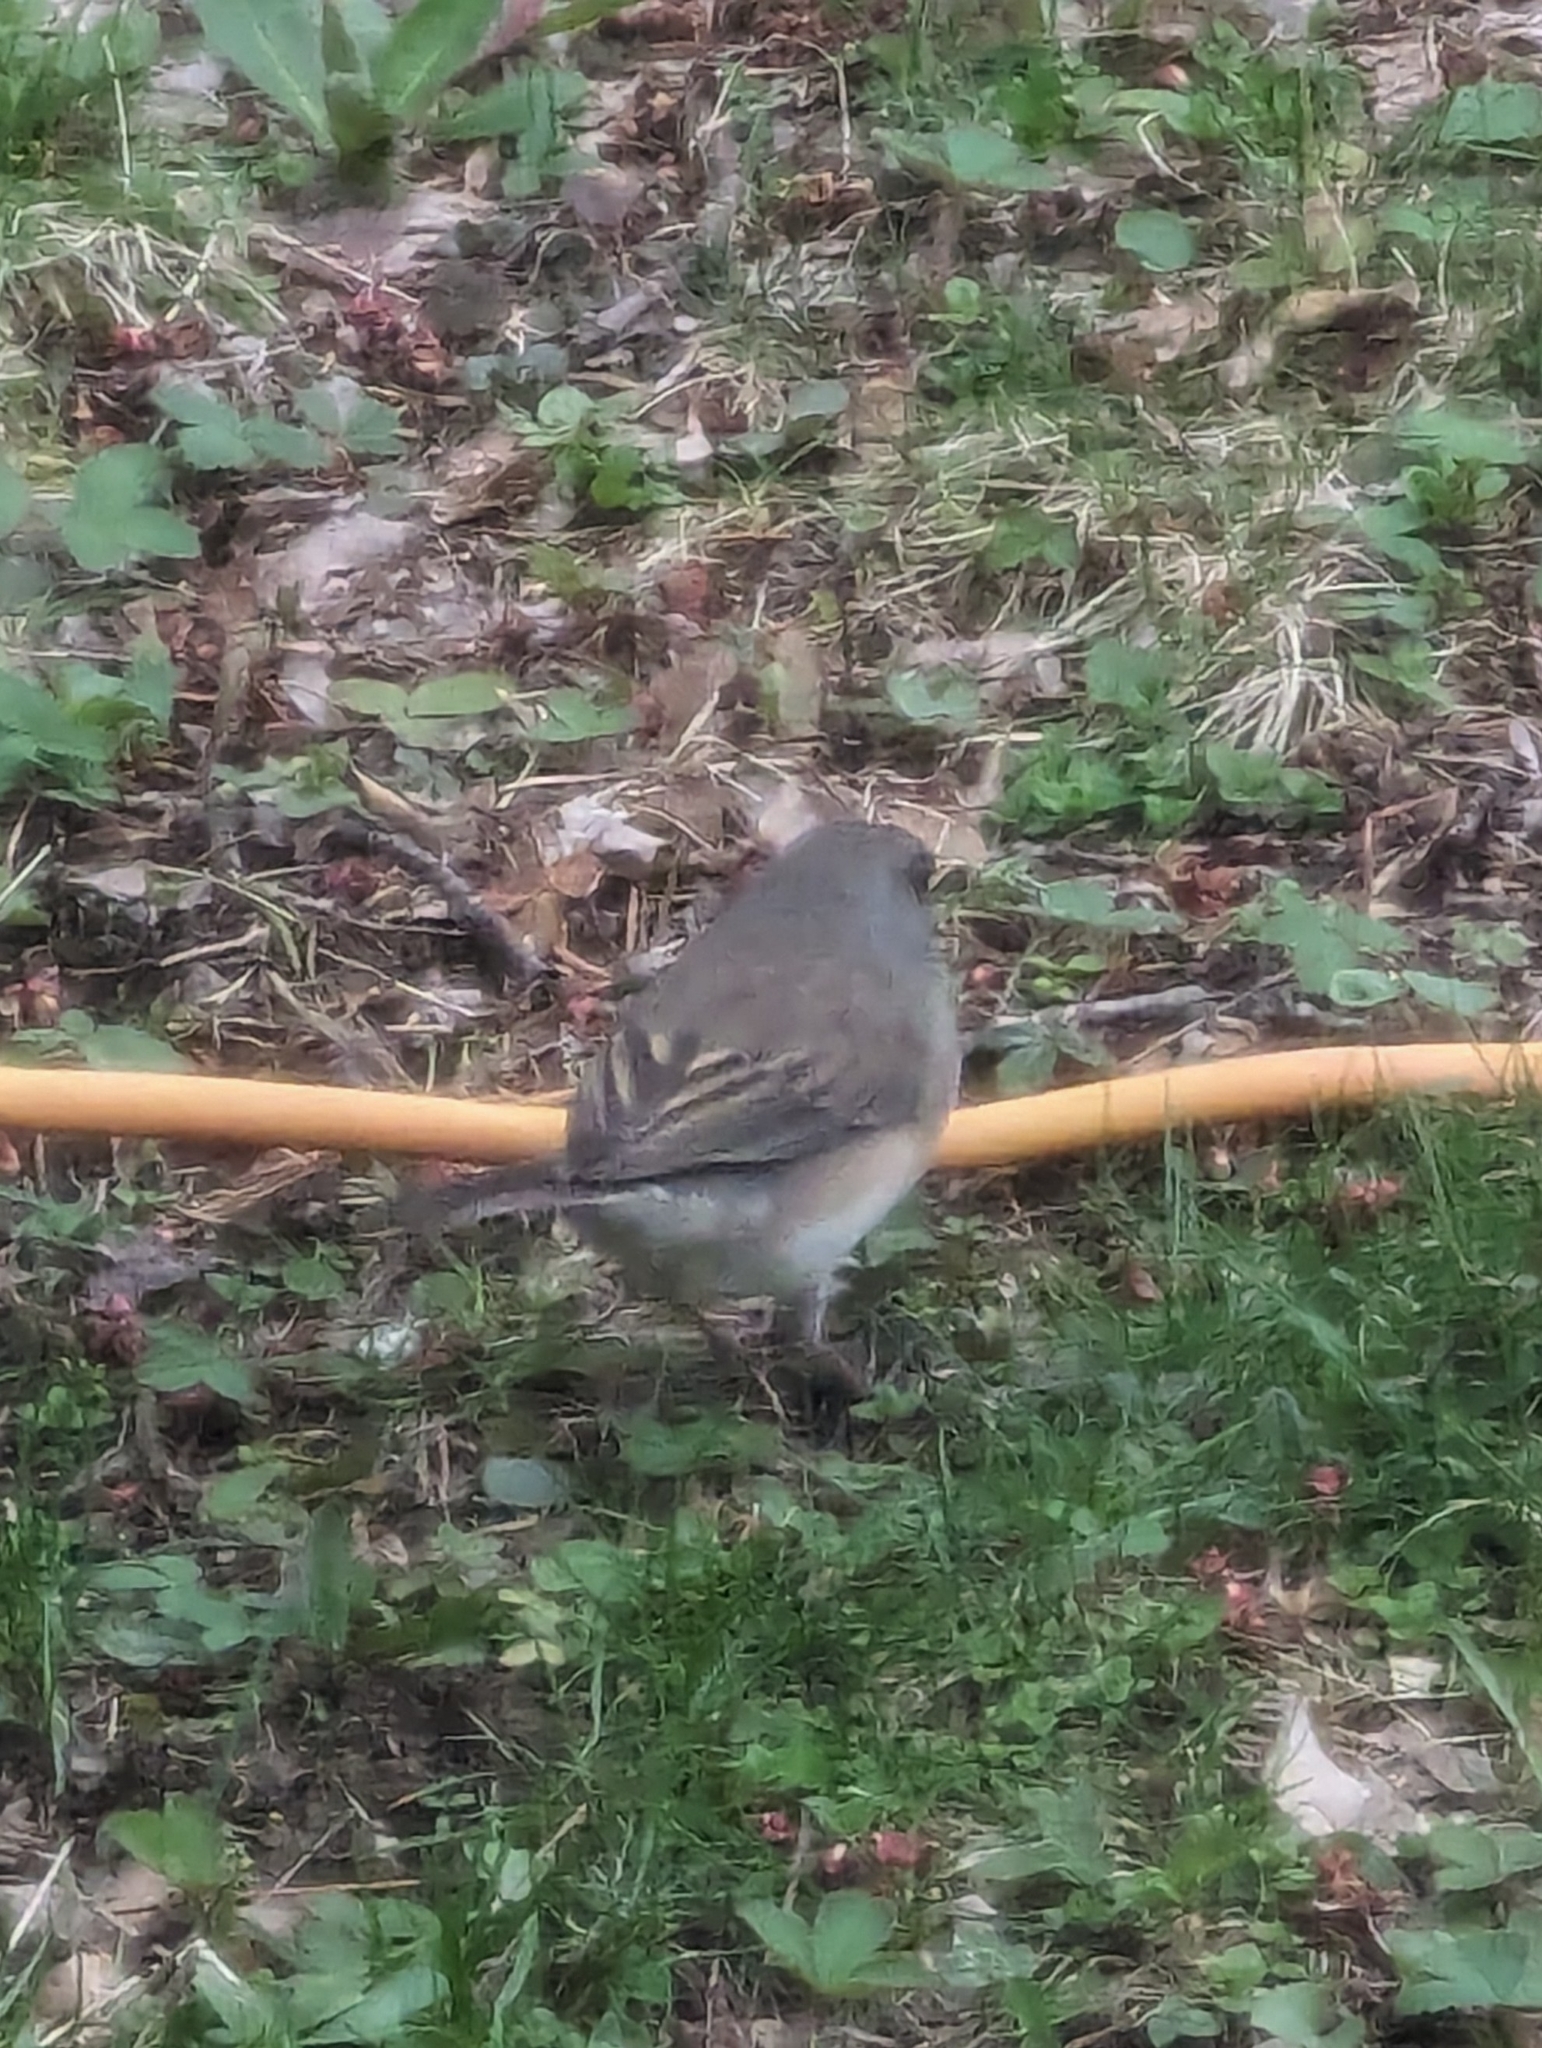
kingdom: Animalia
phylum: Chordata
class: Aves
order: Passeriformes
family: Passerellidae
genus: Junco
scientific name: Junco hyemalis
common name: Dark-eyed junco
